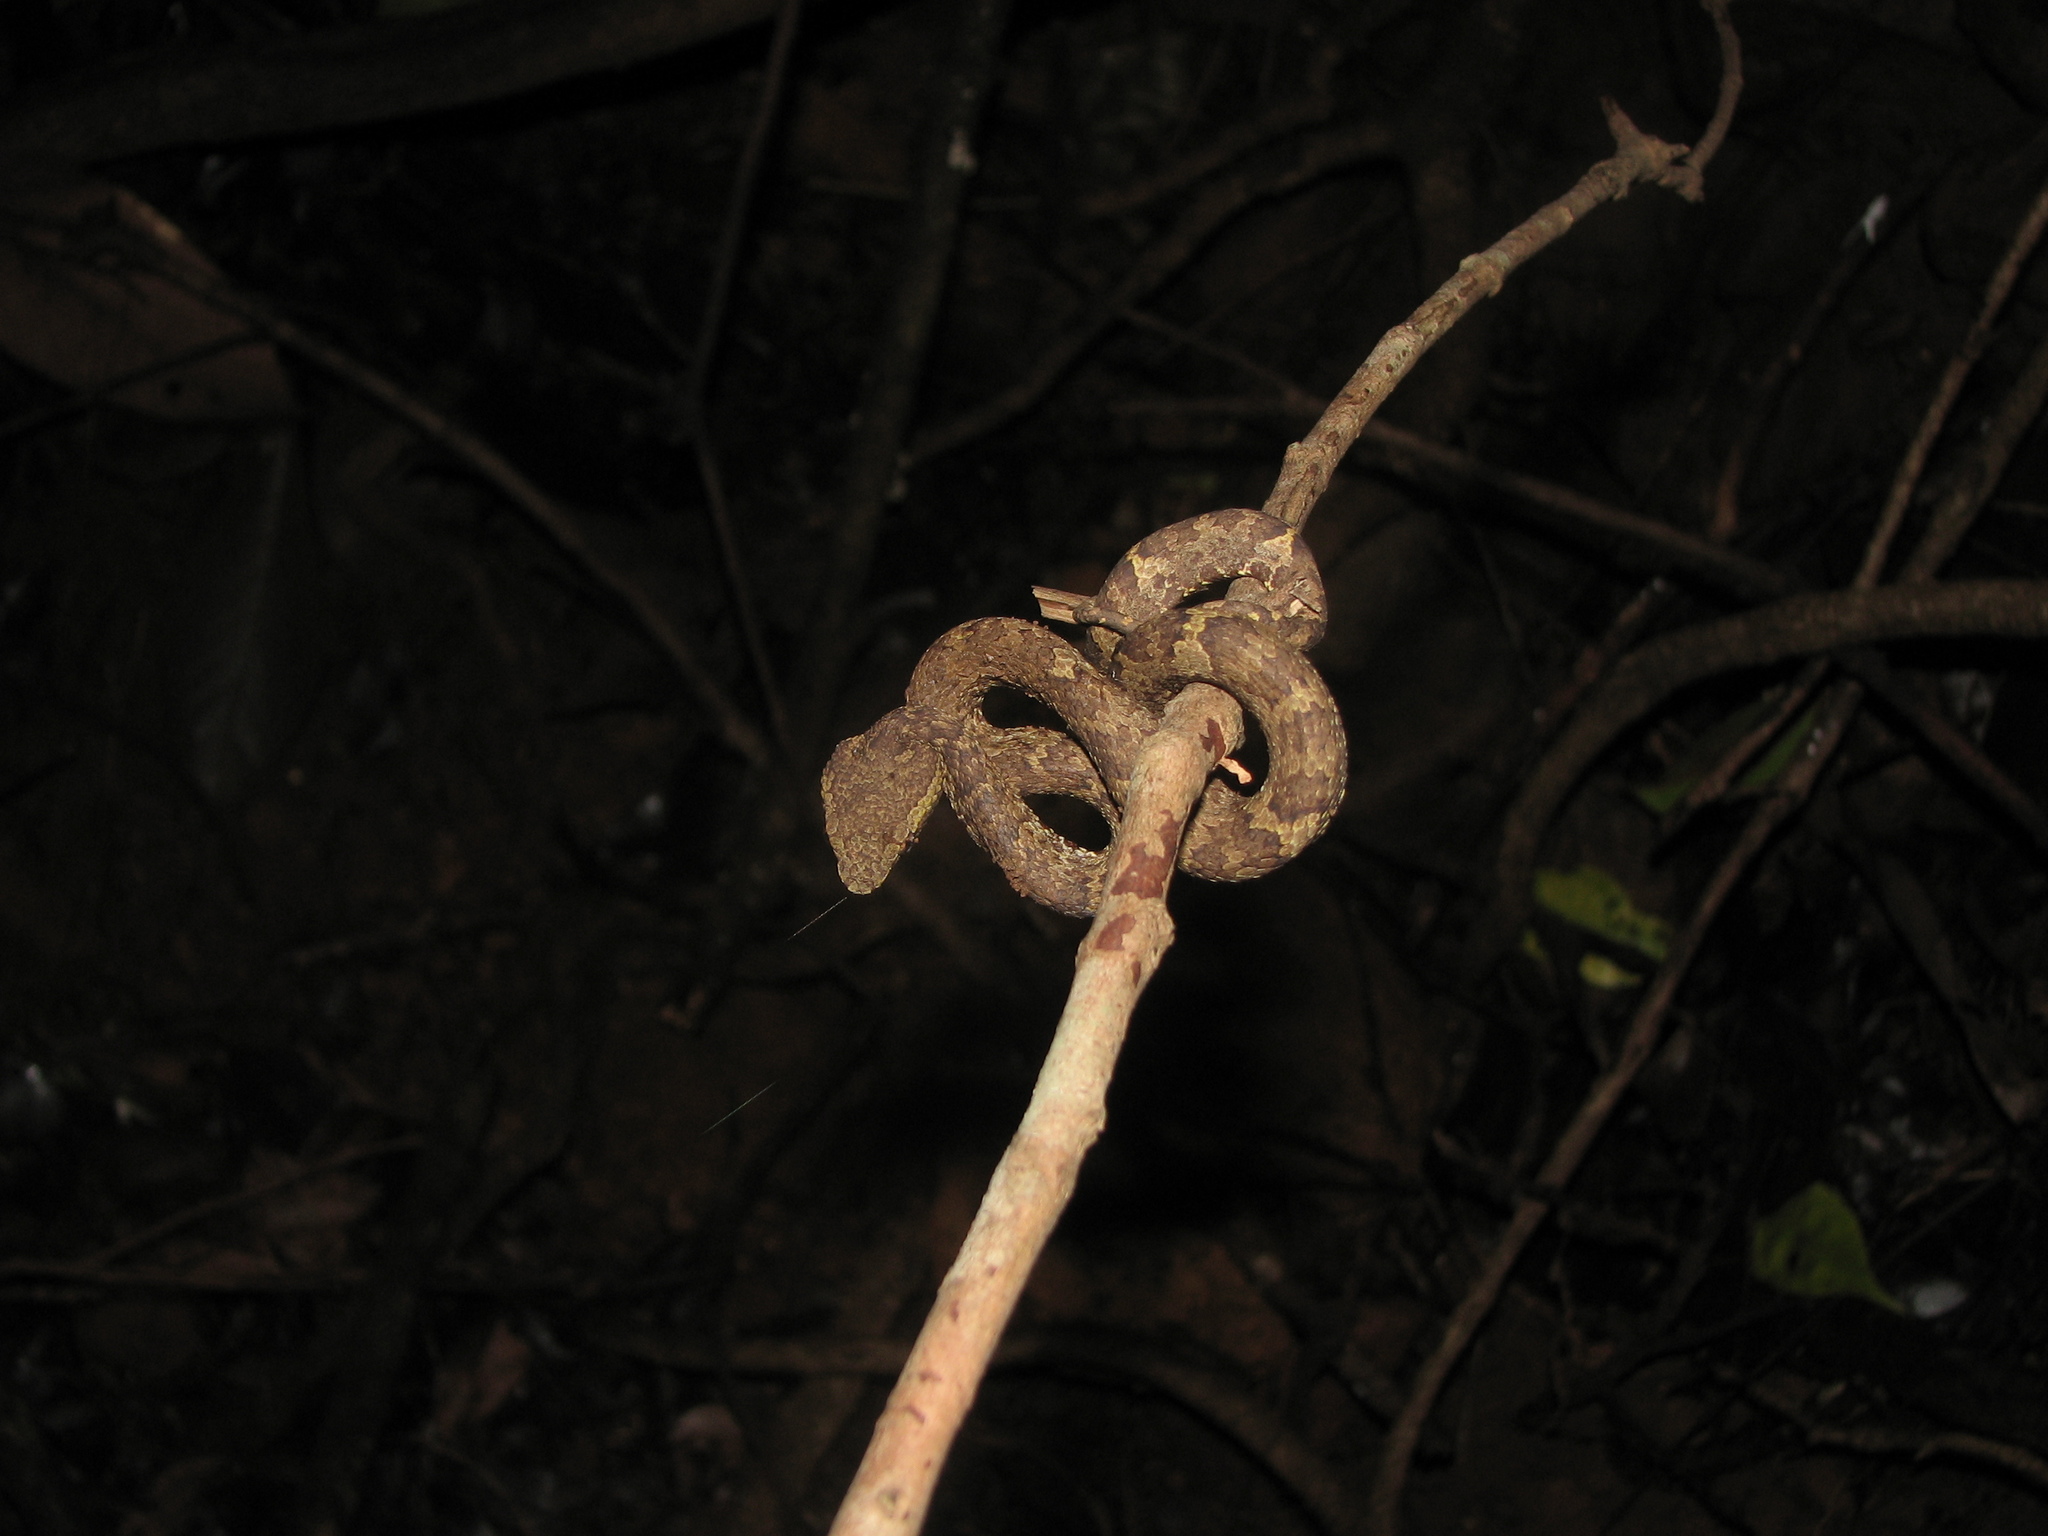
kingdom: Animalia
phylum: Chordata
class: Squamata
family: Viperidae
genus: Craspedocephalus
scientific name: Craspedocephalus malabaricus
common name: Malabarian pit viper
